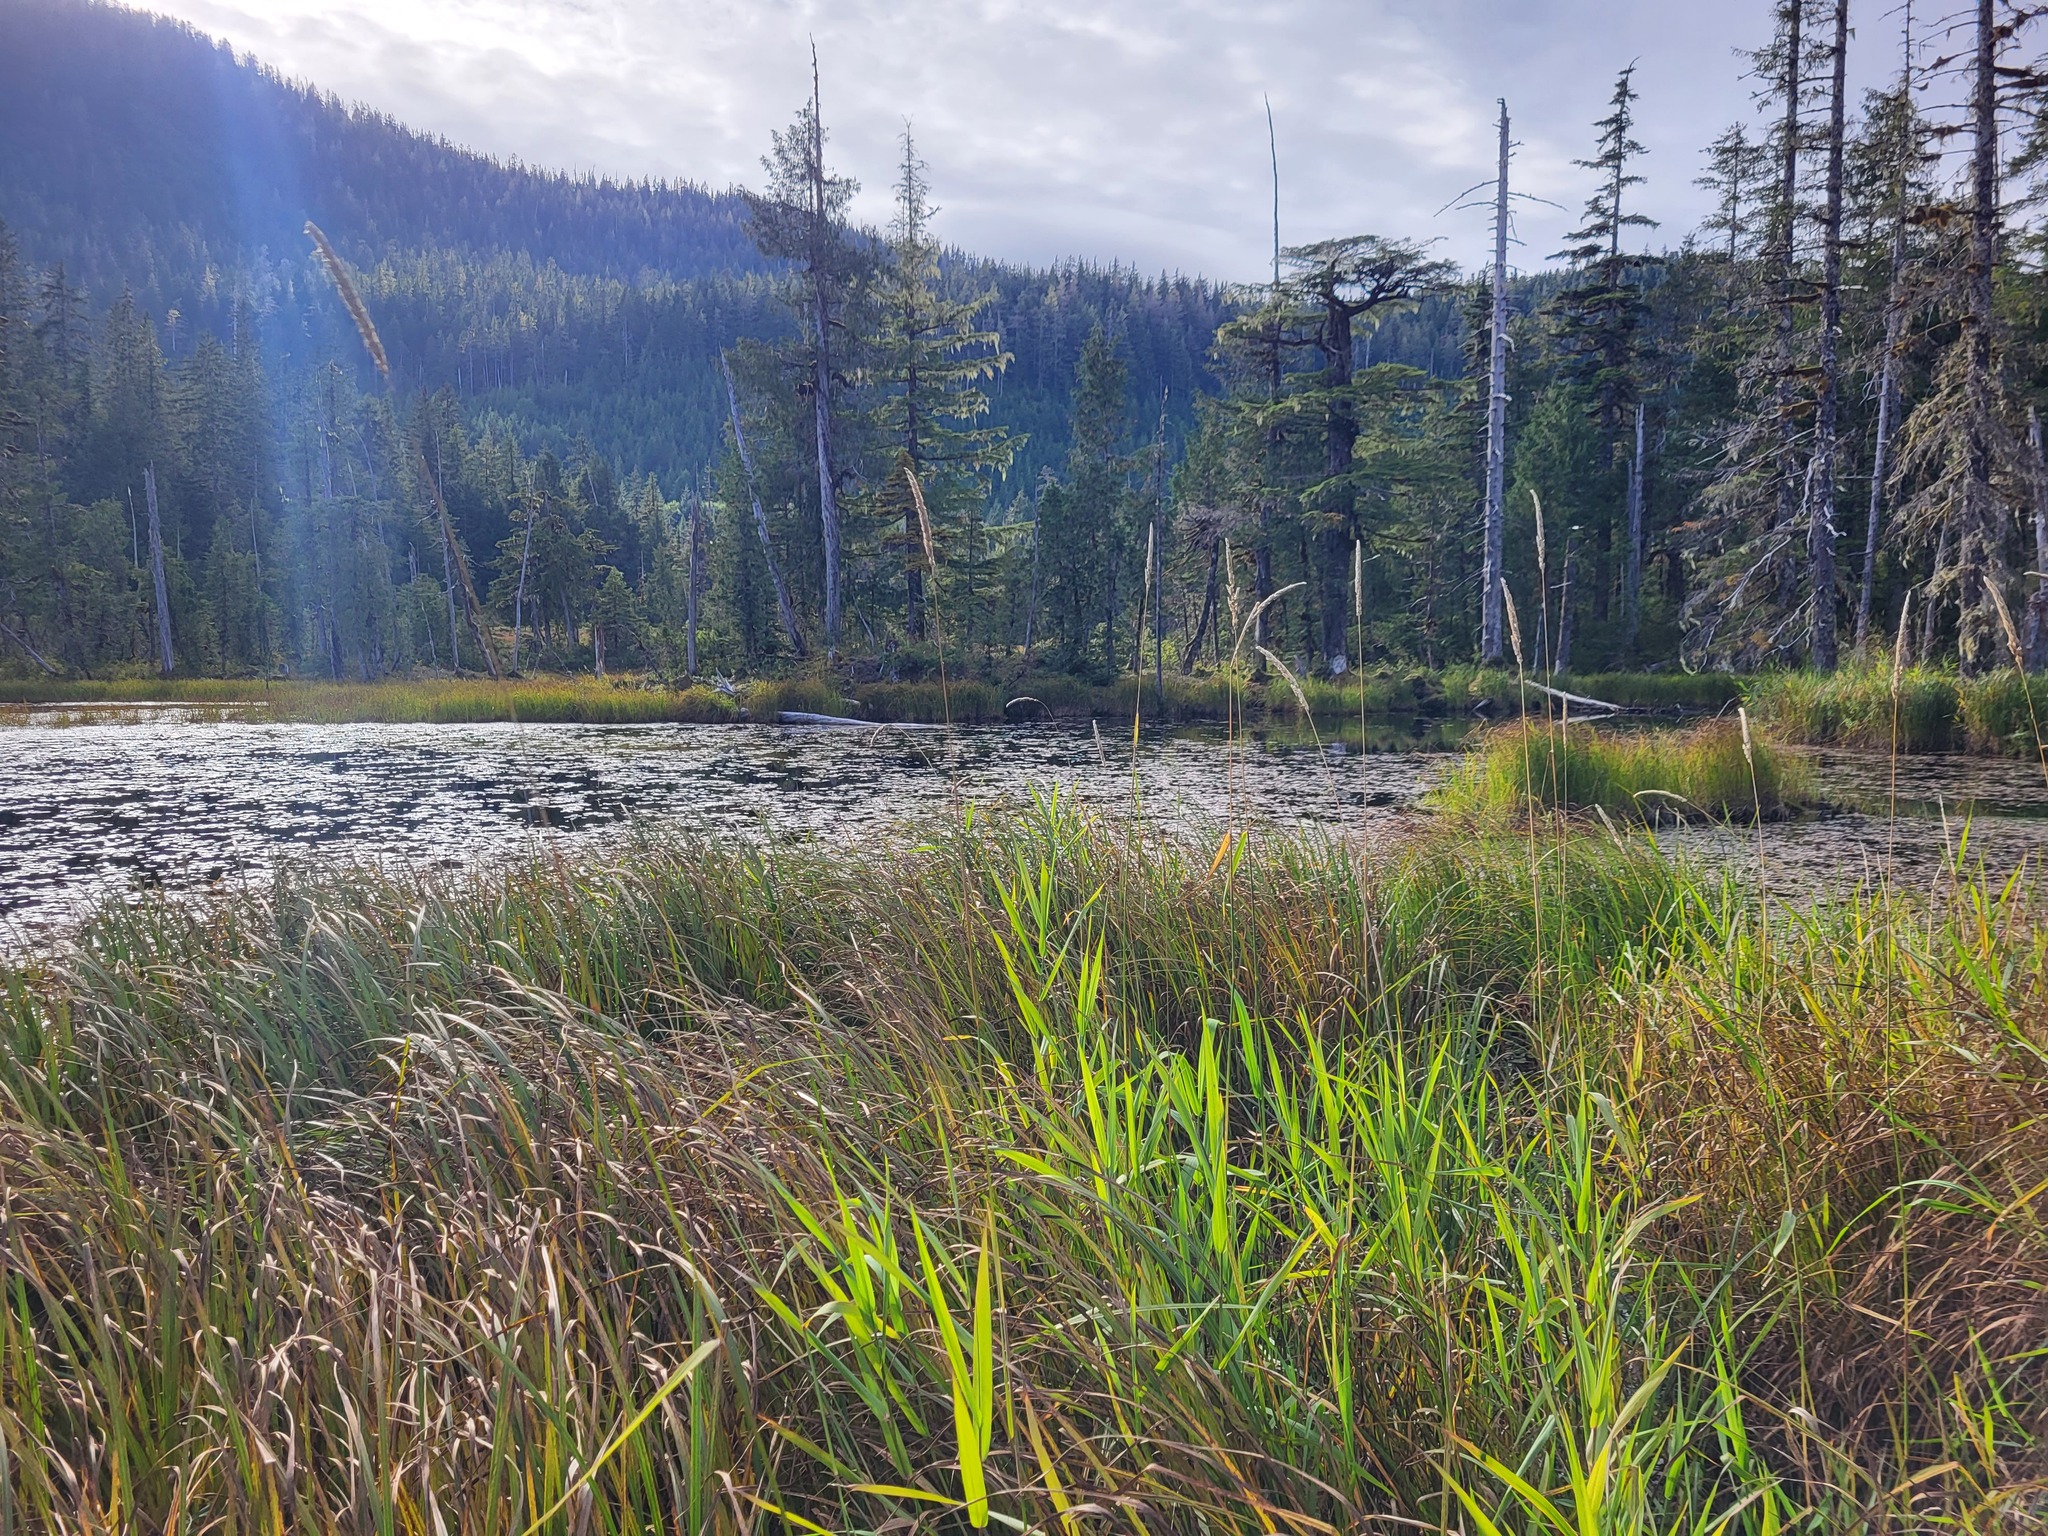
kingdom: Plantae
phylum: Tracheophyta
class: Liliopsida
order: Poales
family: Poaceae
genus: Phalaris
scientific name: Phalaris arundinacea
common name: Reed canary-grass
